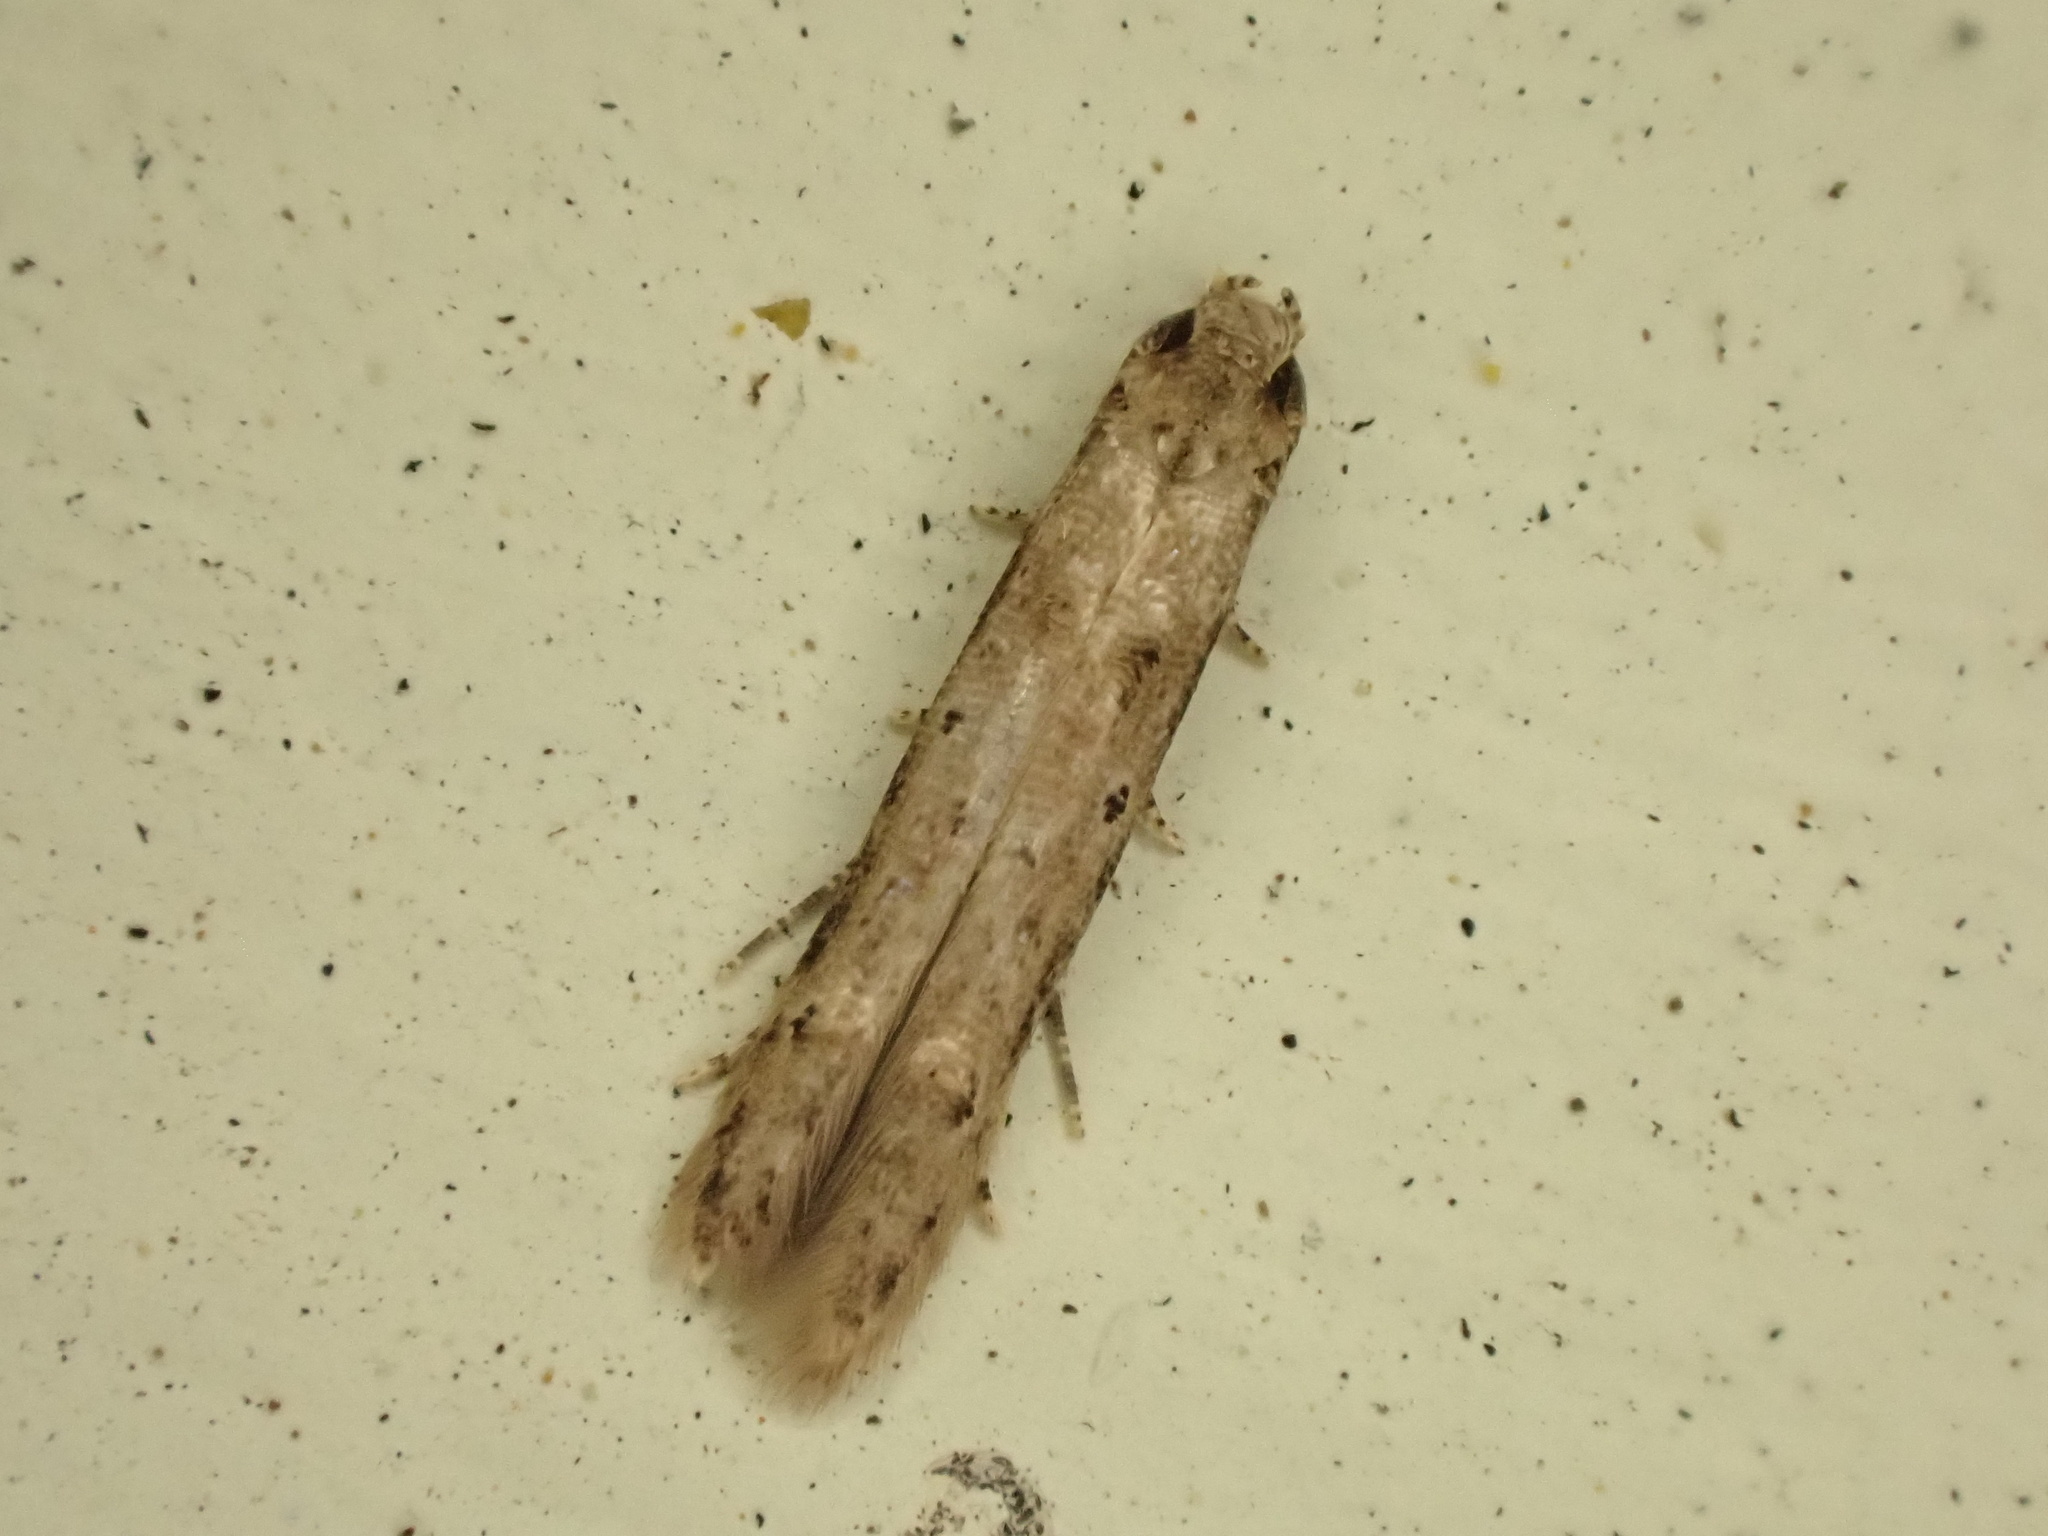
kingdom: Animalia
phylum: Arthropoda
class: Insecta
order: Lepidoptera
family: Elachistidae
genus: Microcolona
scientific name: Microcolona limodes
